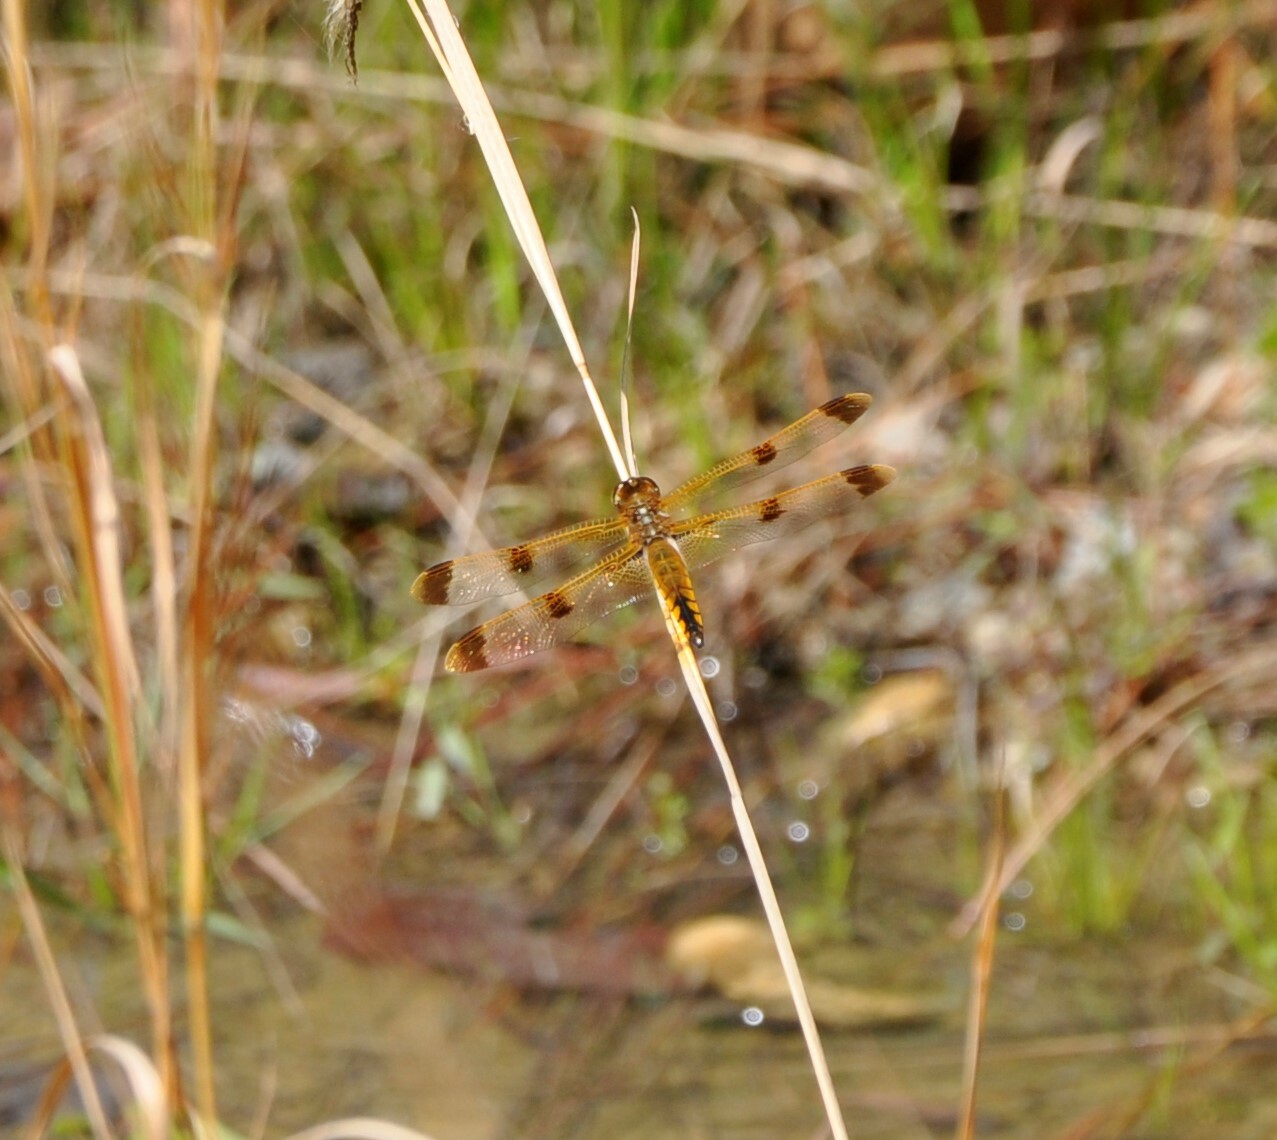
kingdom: Animalia
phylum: Arthropoda
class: Insecta
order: Odonata
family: Libellulidae
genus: Libellula
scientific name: Libellula semifasciata
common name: Painted skimmer
